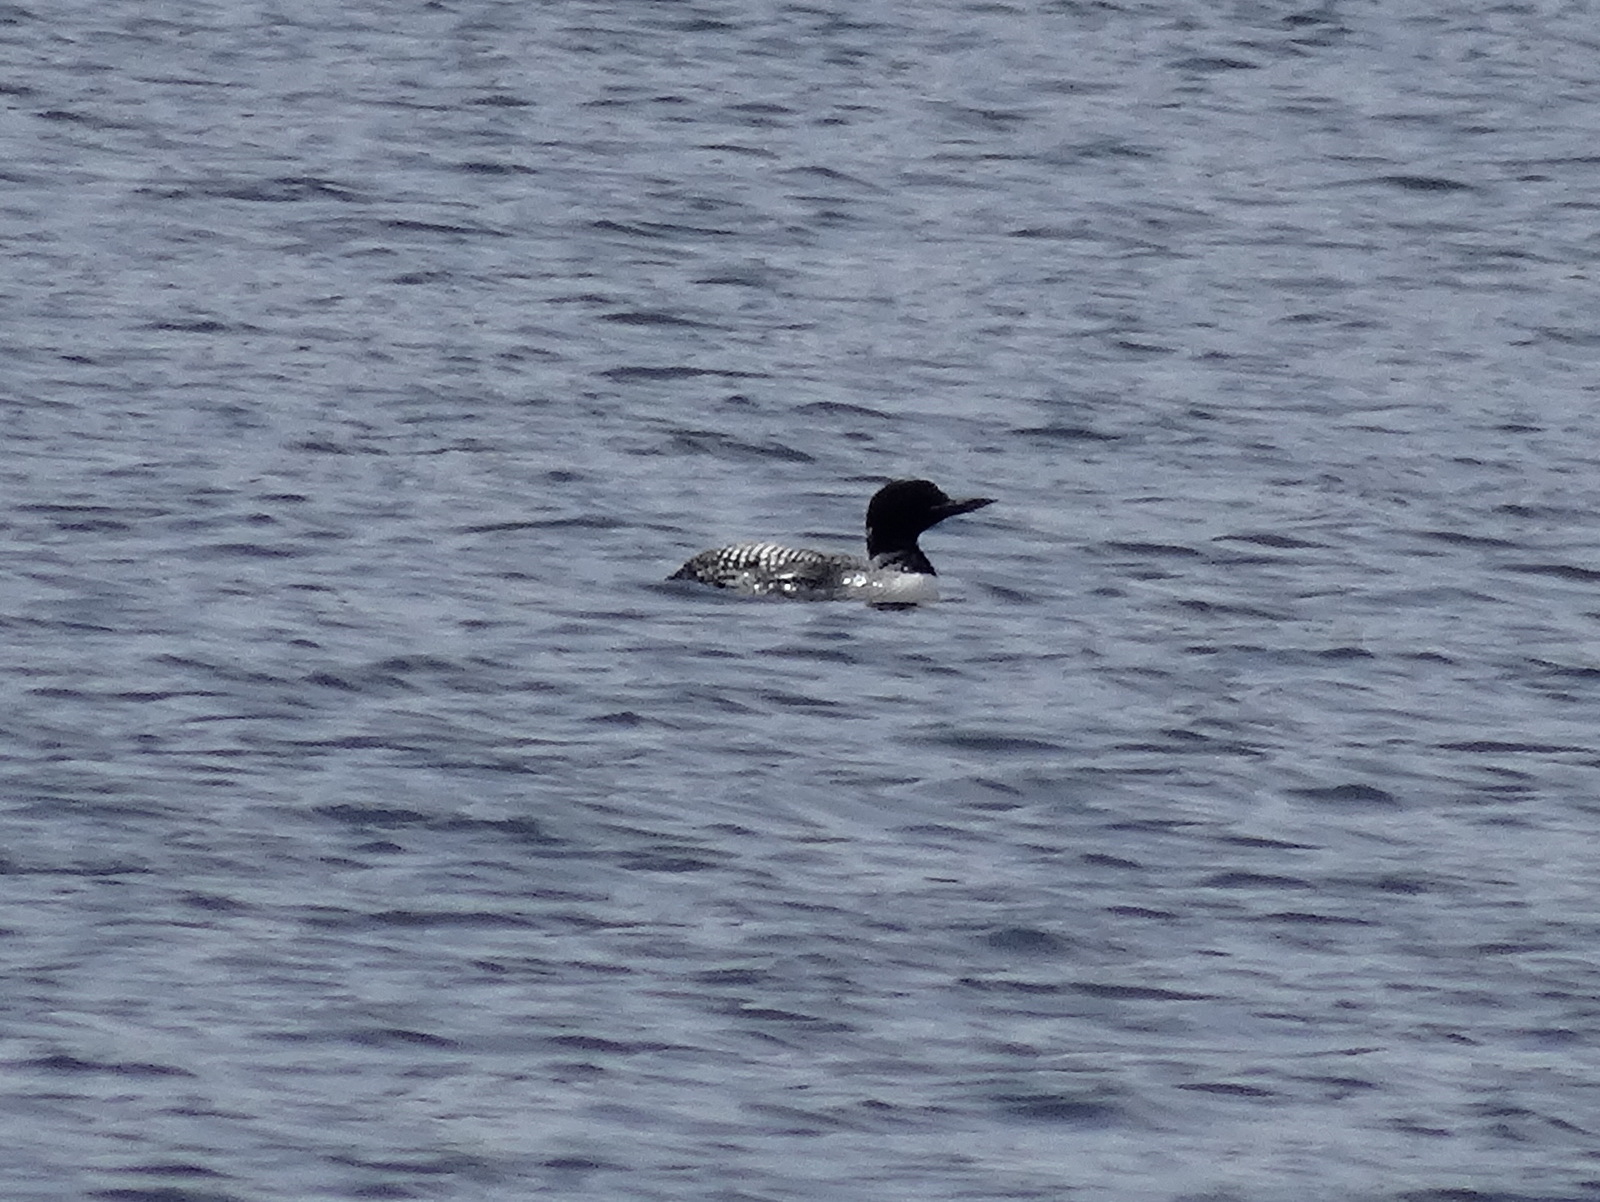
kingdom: Animalia
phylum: Chordata
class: Aves
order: Gaviiformes
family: Gaviidae
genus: Gavia
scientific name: Gavia immer
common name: Common loon
